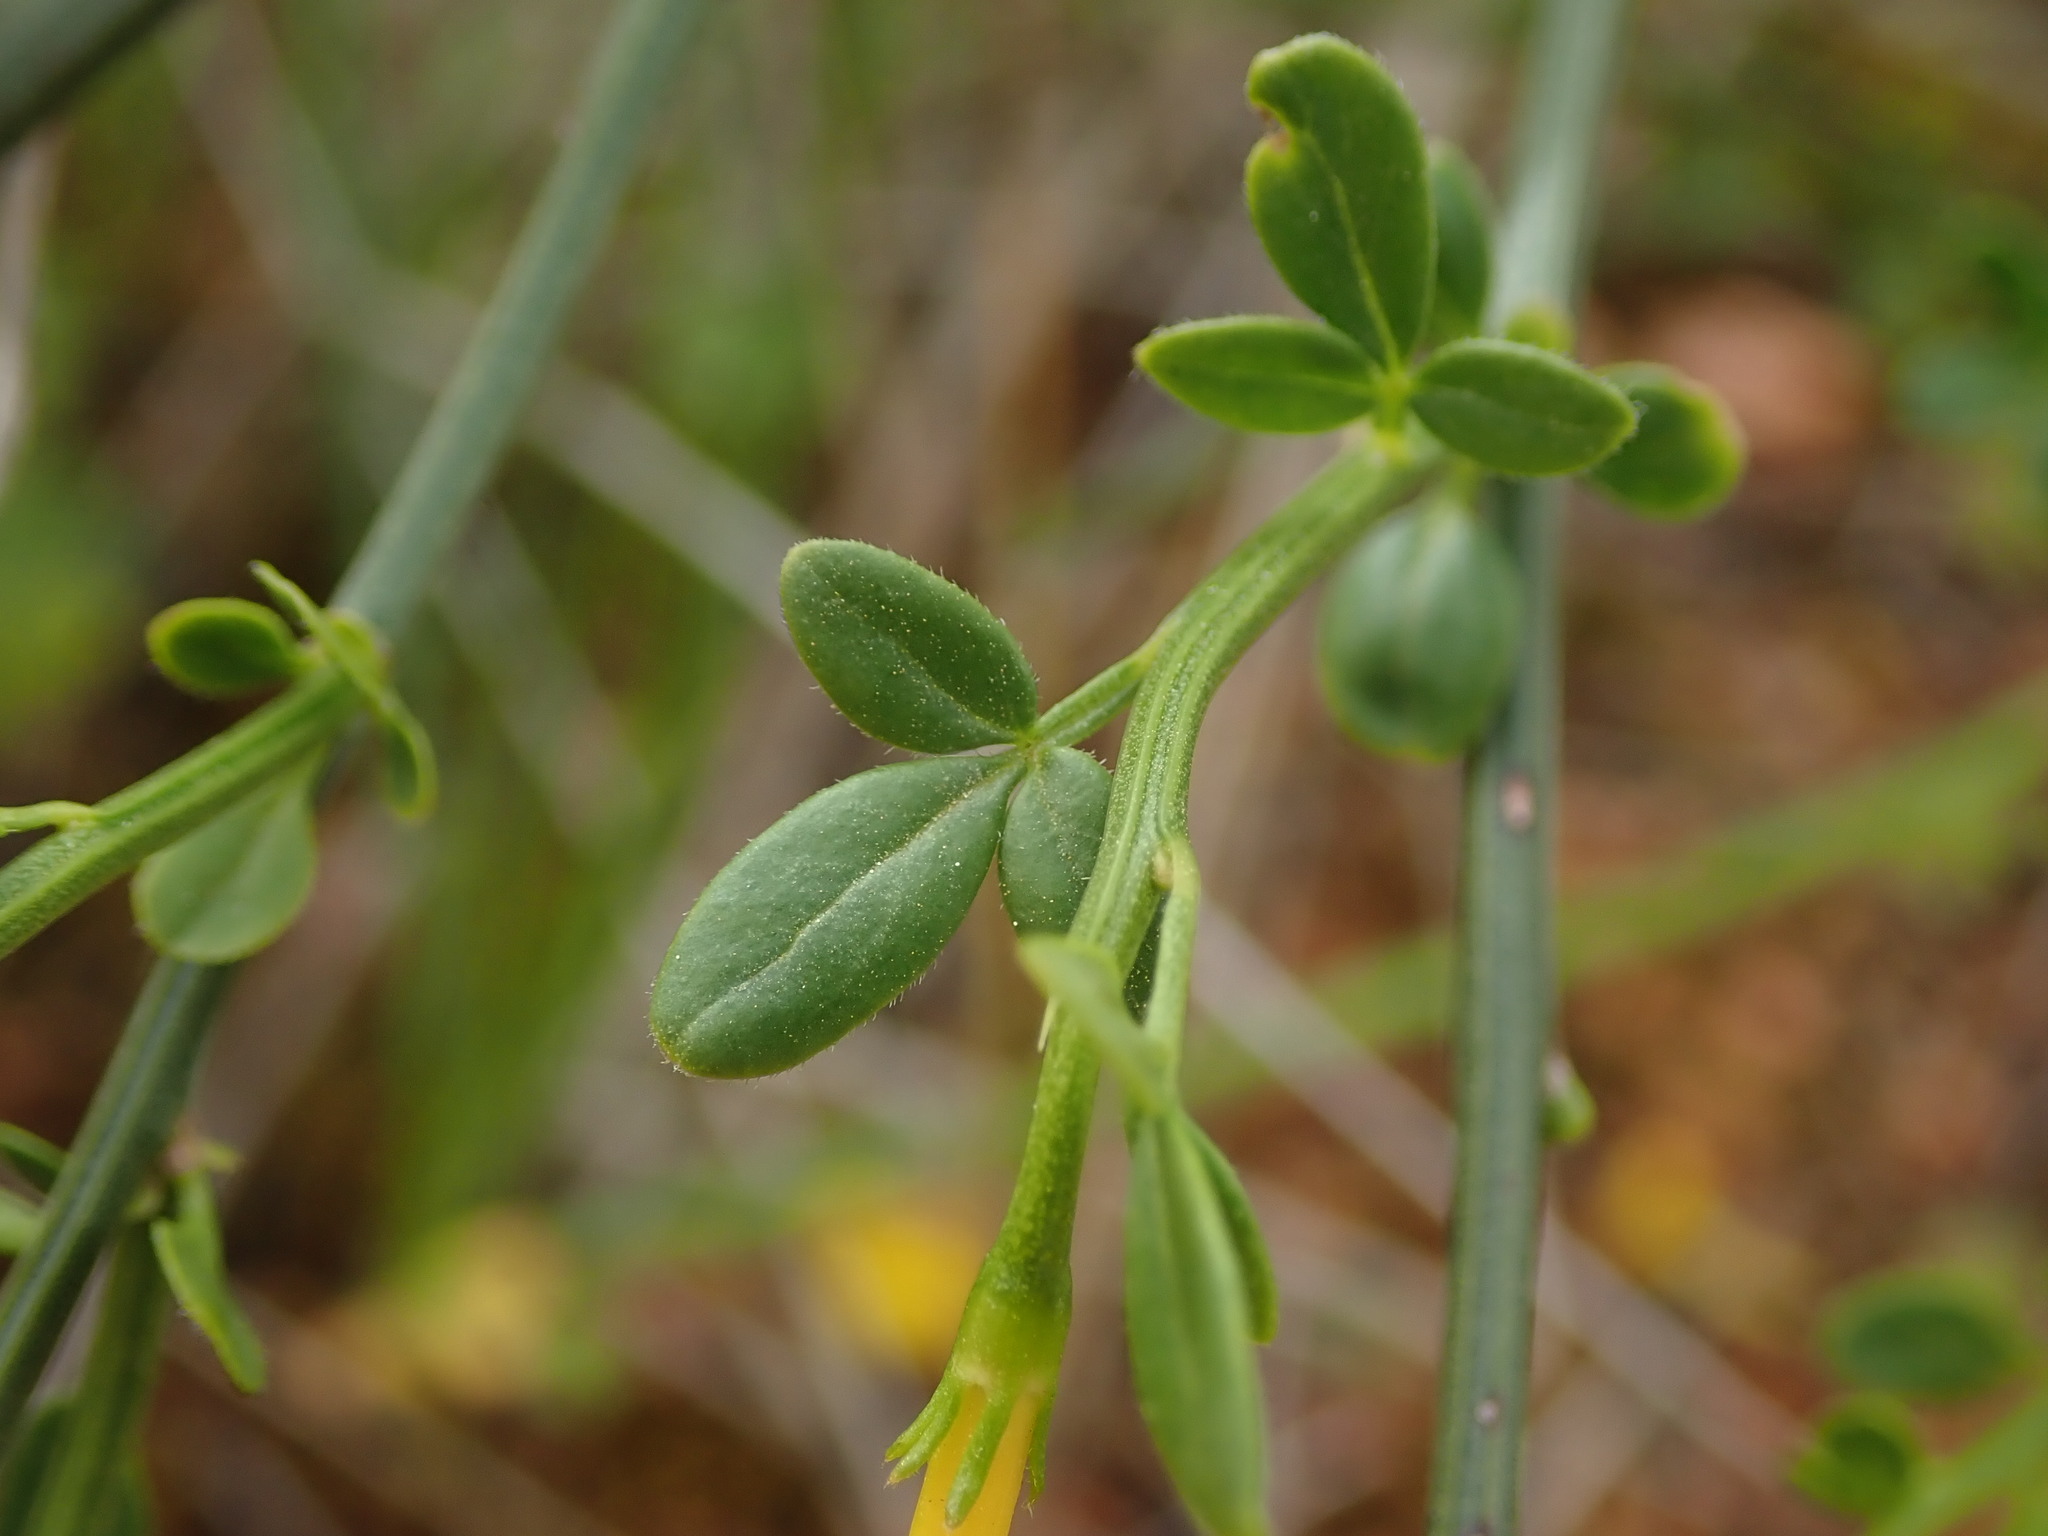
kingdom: Plantae
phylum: Tracheophyta
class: Magnoliopsida
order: Lamiales
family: Oleaceae
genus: Chrysojasminum
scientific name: Chrysojasminum fruticans
